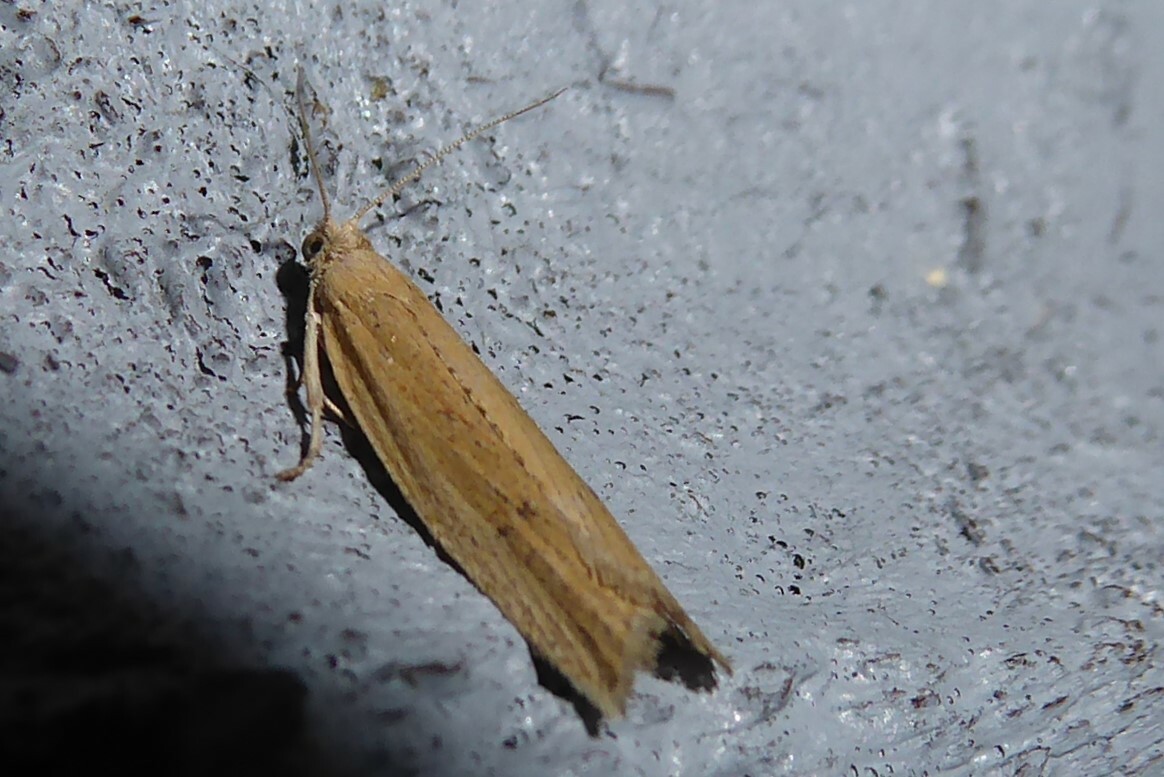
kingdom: Animalia
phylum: Arthropoda
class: Insecta
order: Lepidoptera
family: Tortricidae
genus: Bactra
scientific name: Bactra noteraula
